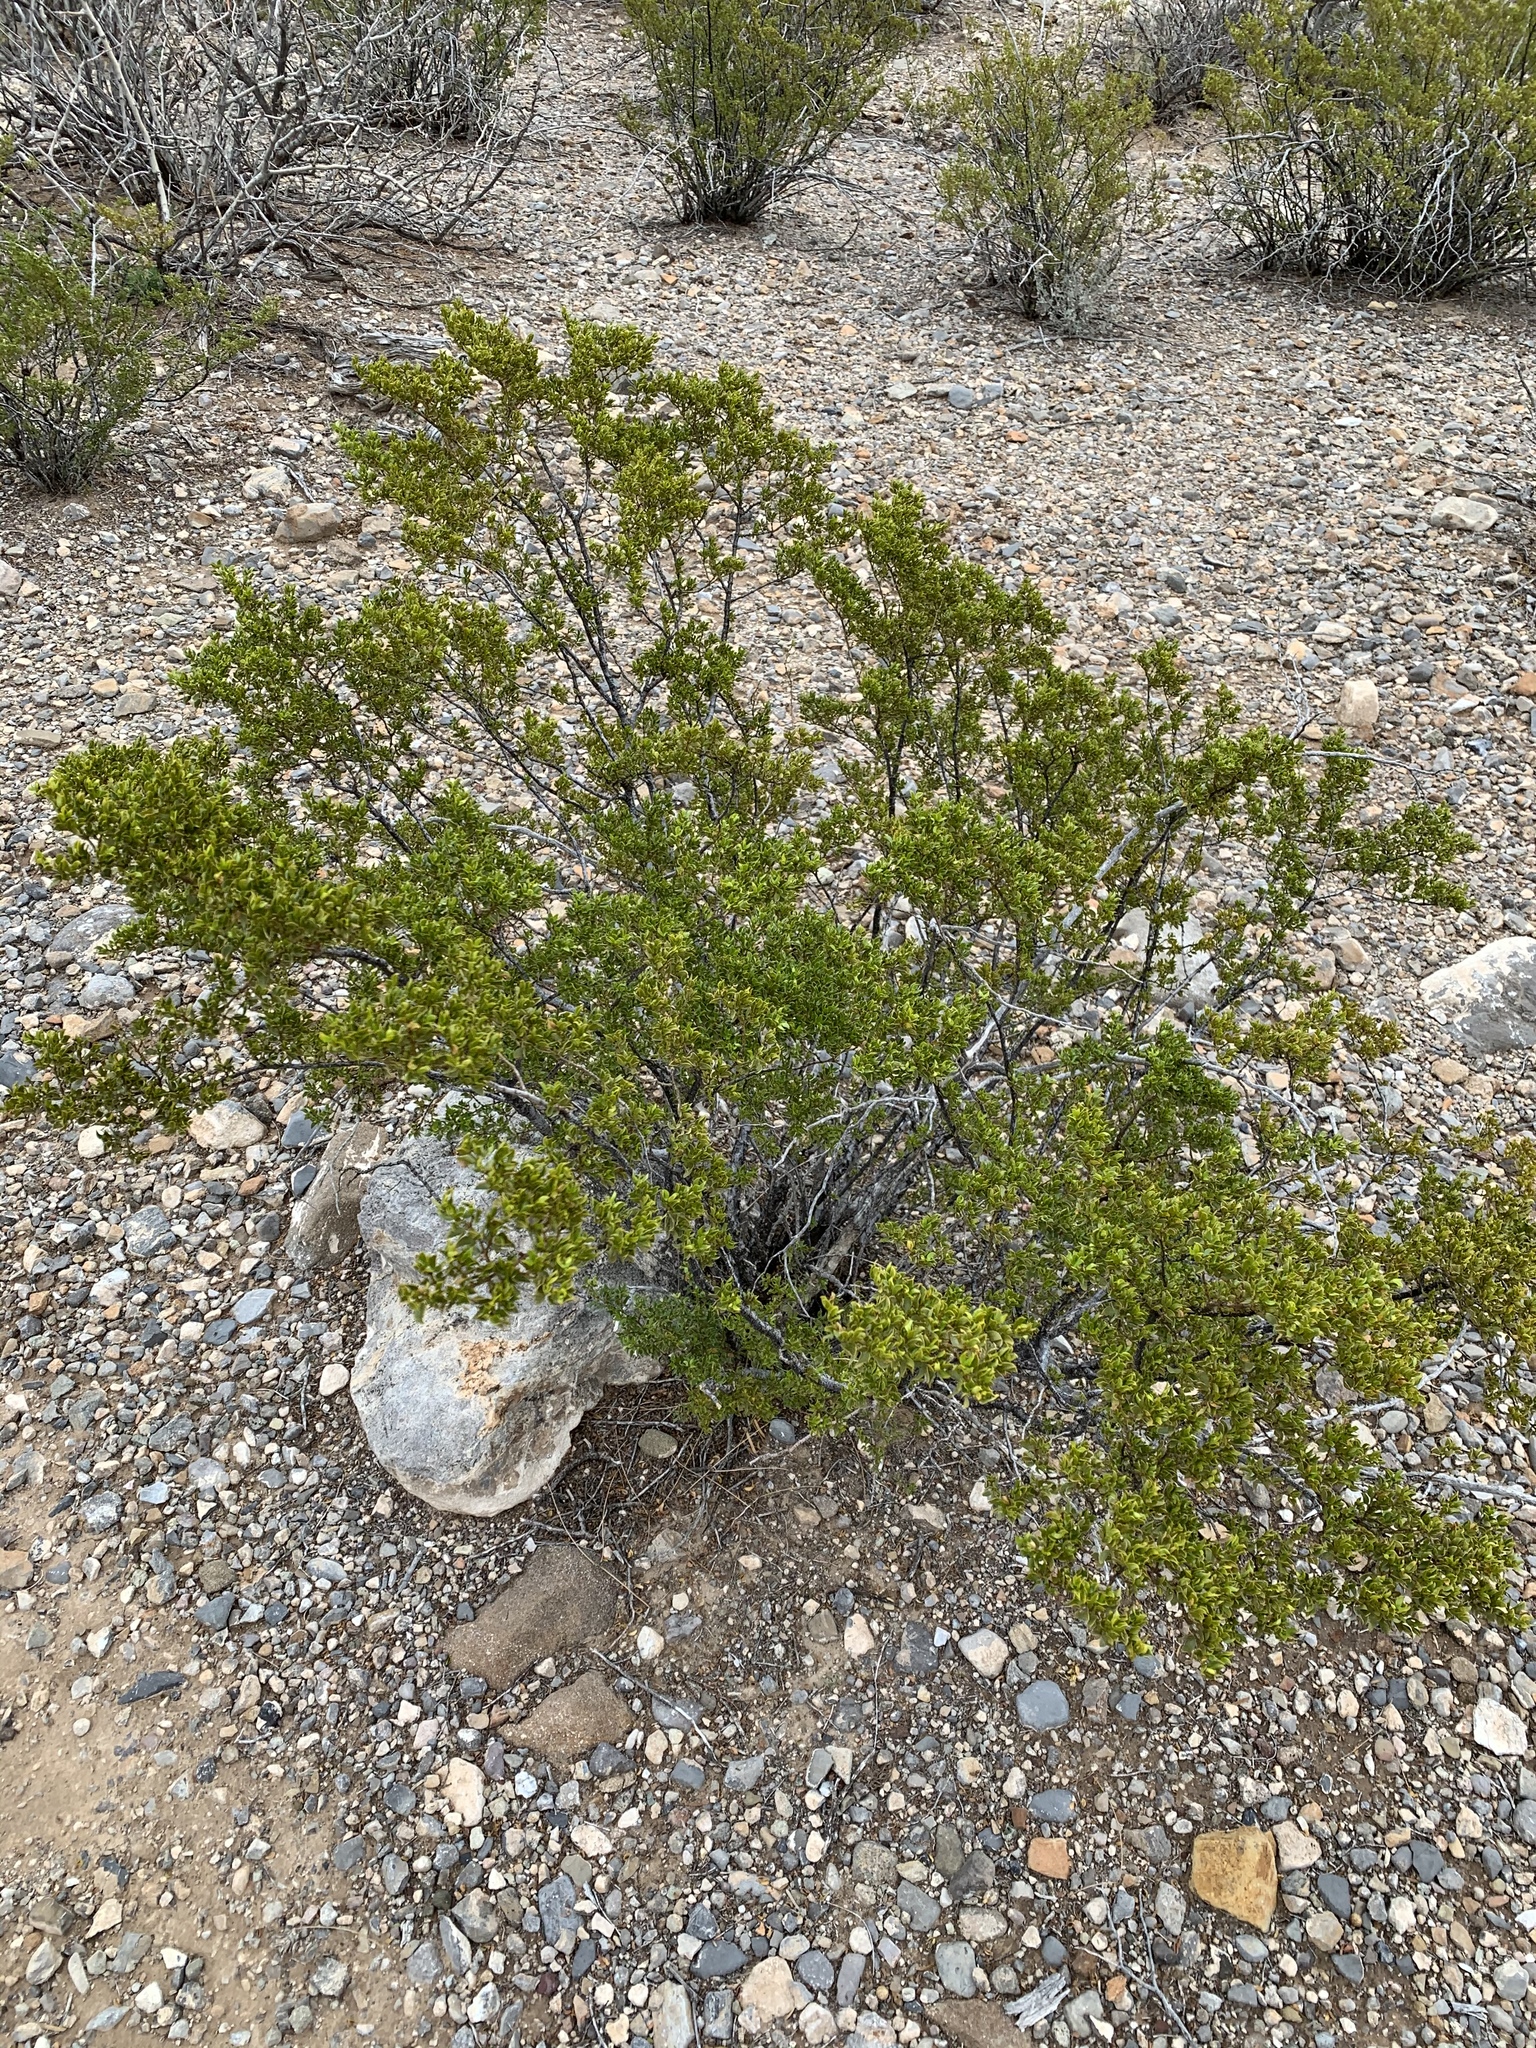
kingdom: Plantae
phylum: Tracheophyta
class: Magnoliopsida
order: Zygophyllales
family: Zygophyllaceae
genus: Larrea
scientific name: Larrea tridentata
